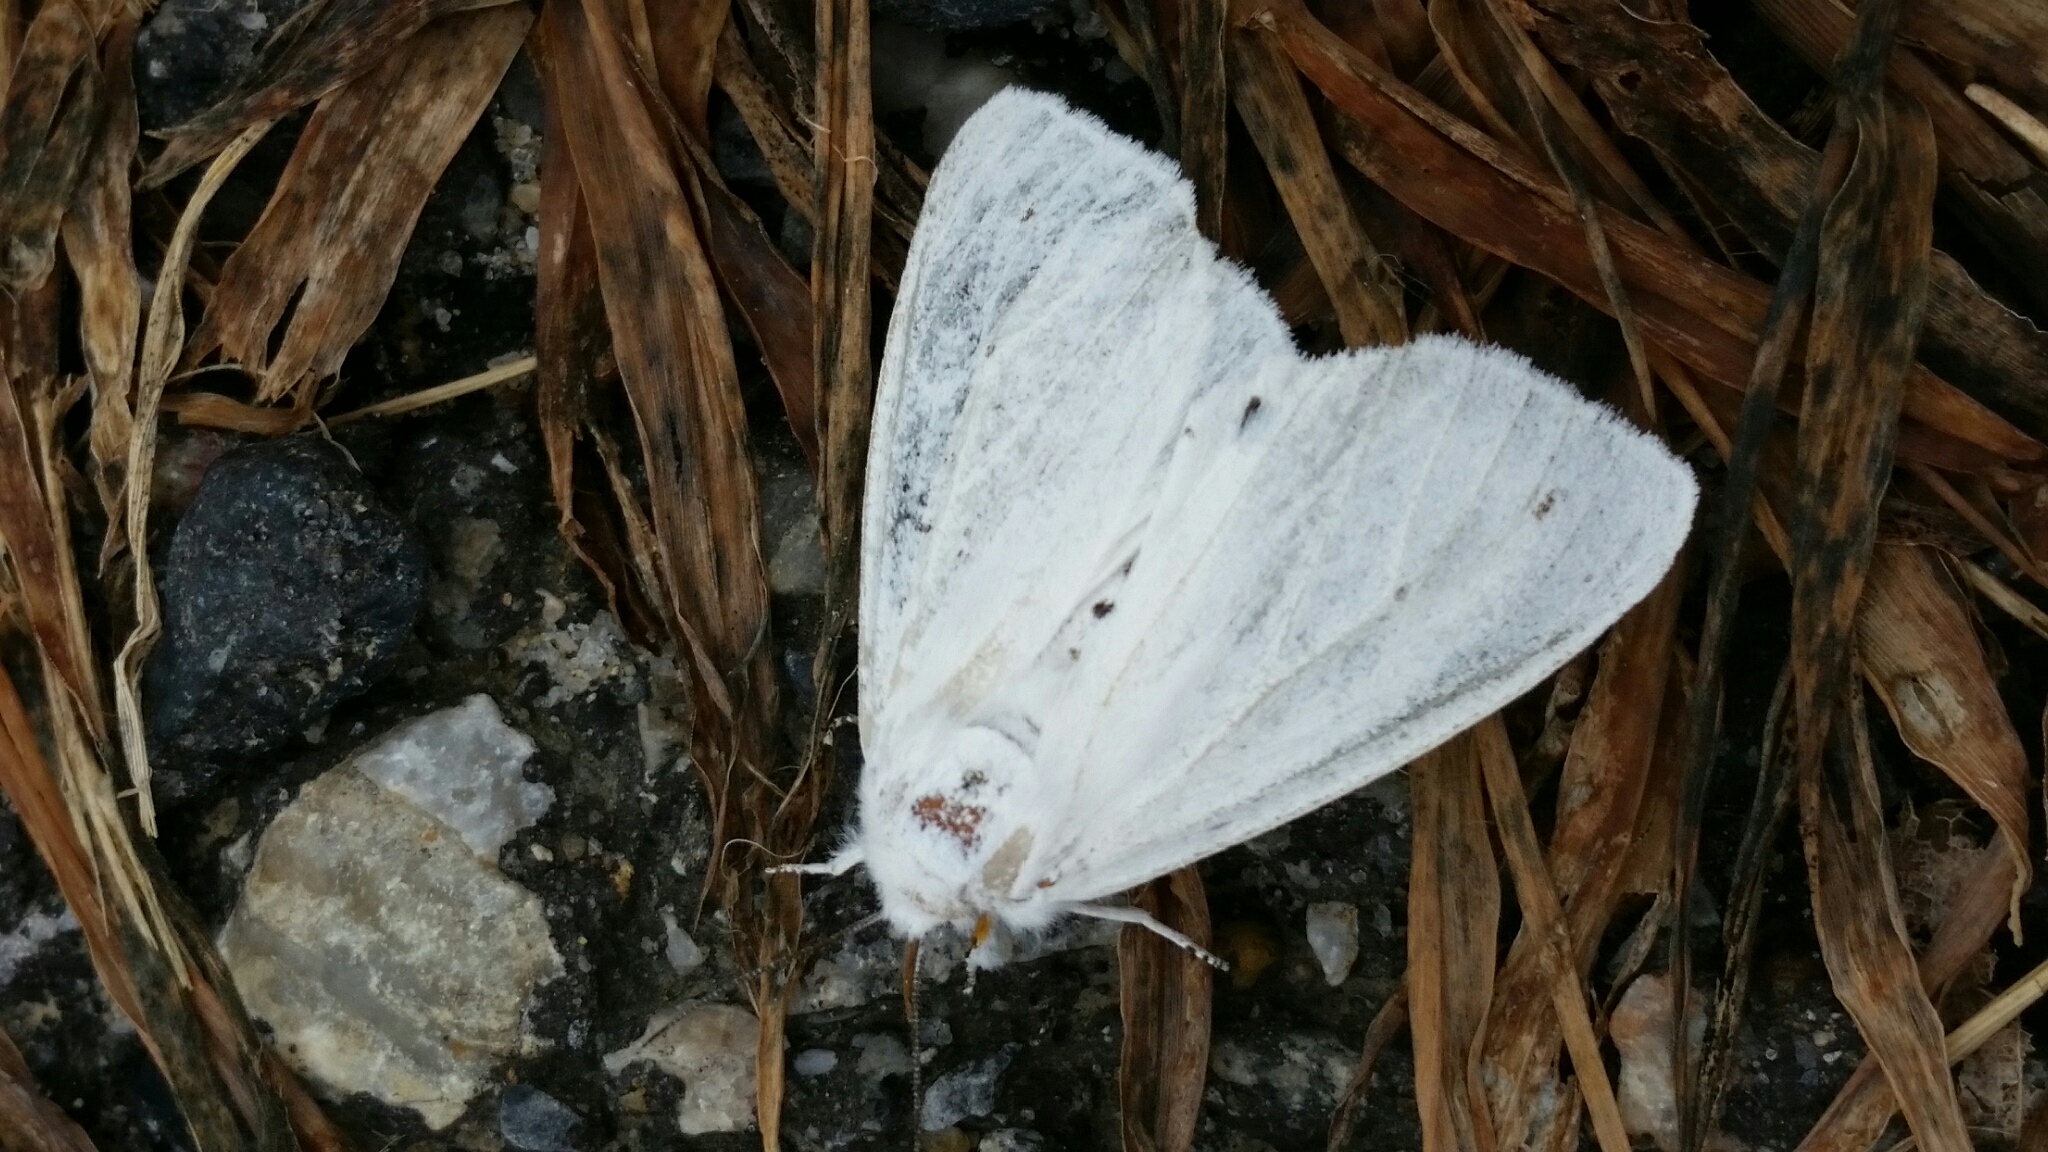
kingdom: Animalia
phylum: Arthropoda
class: Insecta
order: Lepidoptera
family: Erebidae
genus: Spilosoma
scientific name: Spilosoma virginica
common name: Virginia tiger moth
